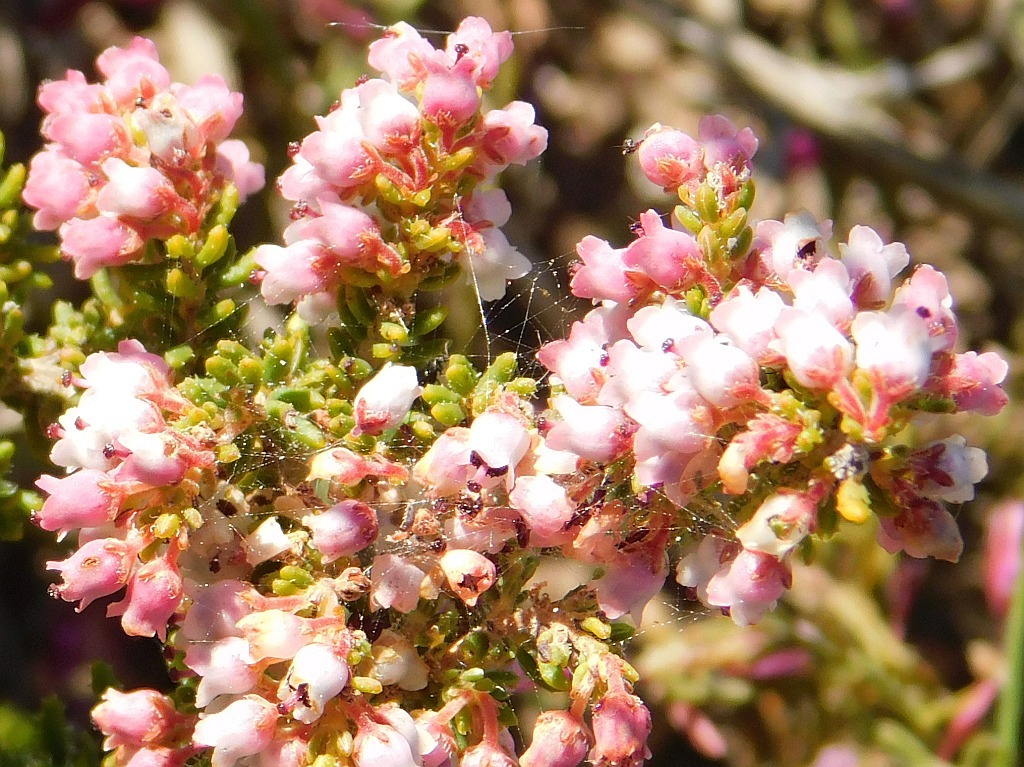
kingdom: Plantae
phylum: Tracheophyta
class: Magnoliopsida
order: Ericales
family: Ericaceae
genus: Erica
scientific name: Erica setacea
